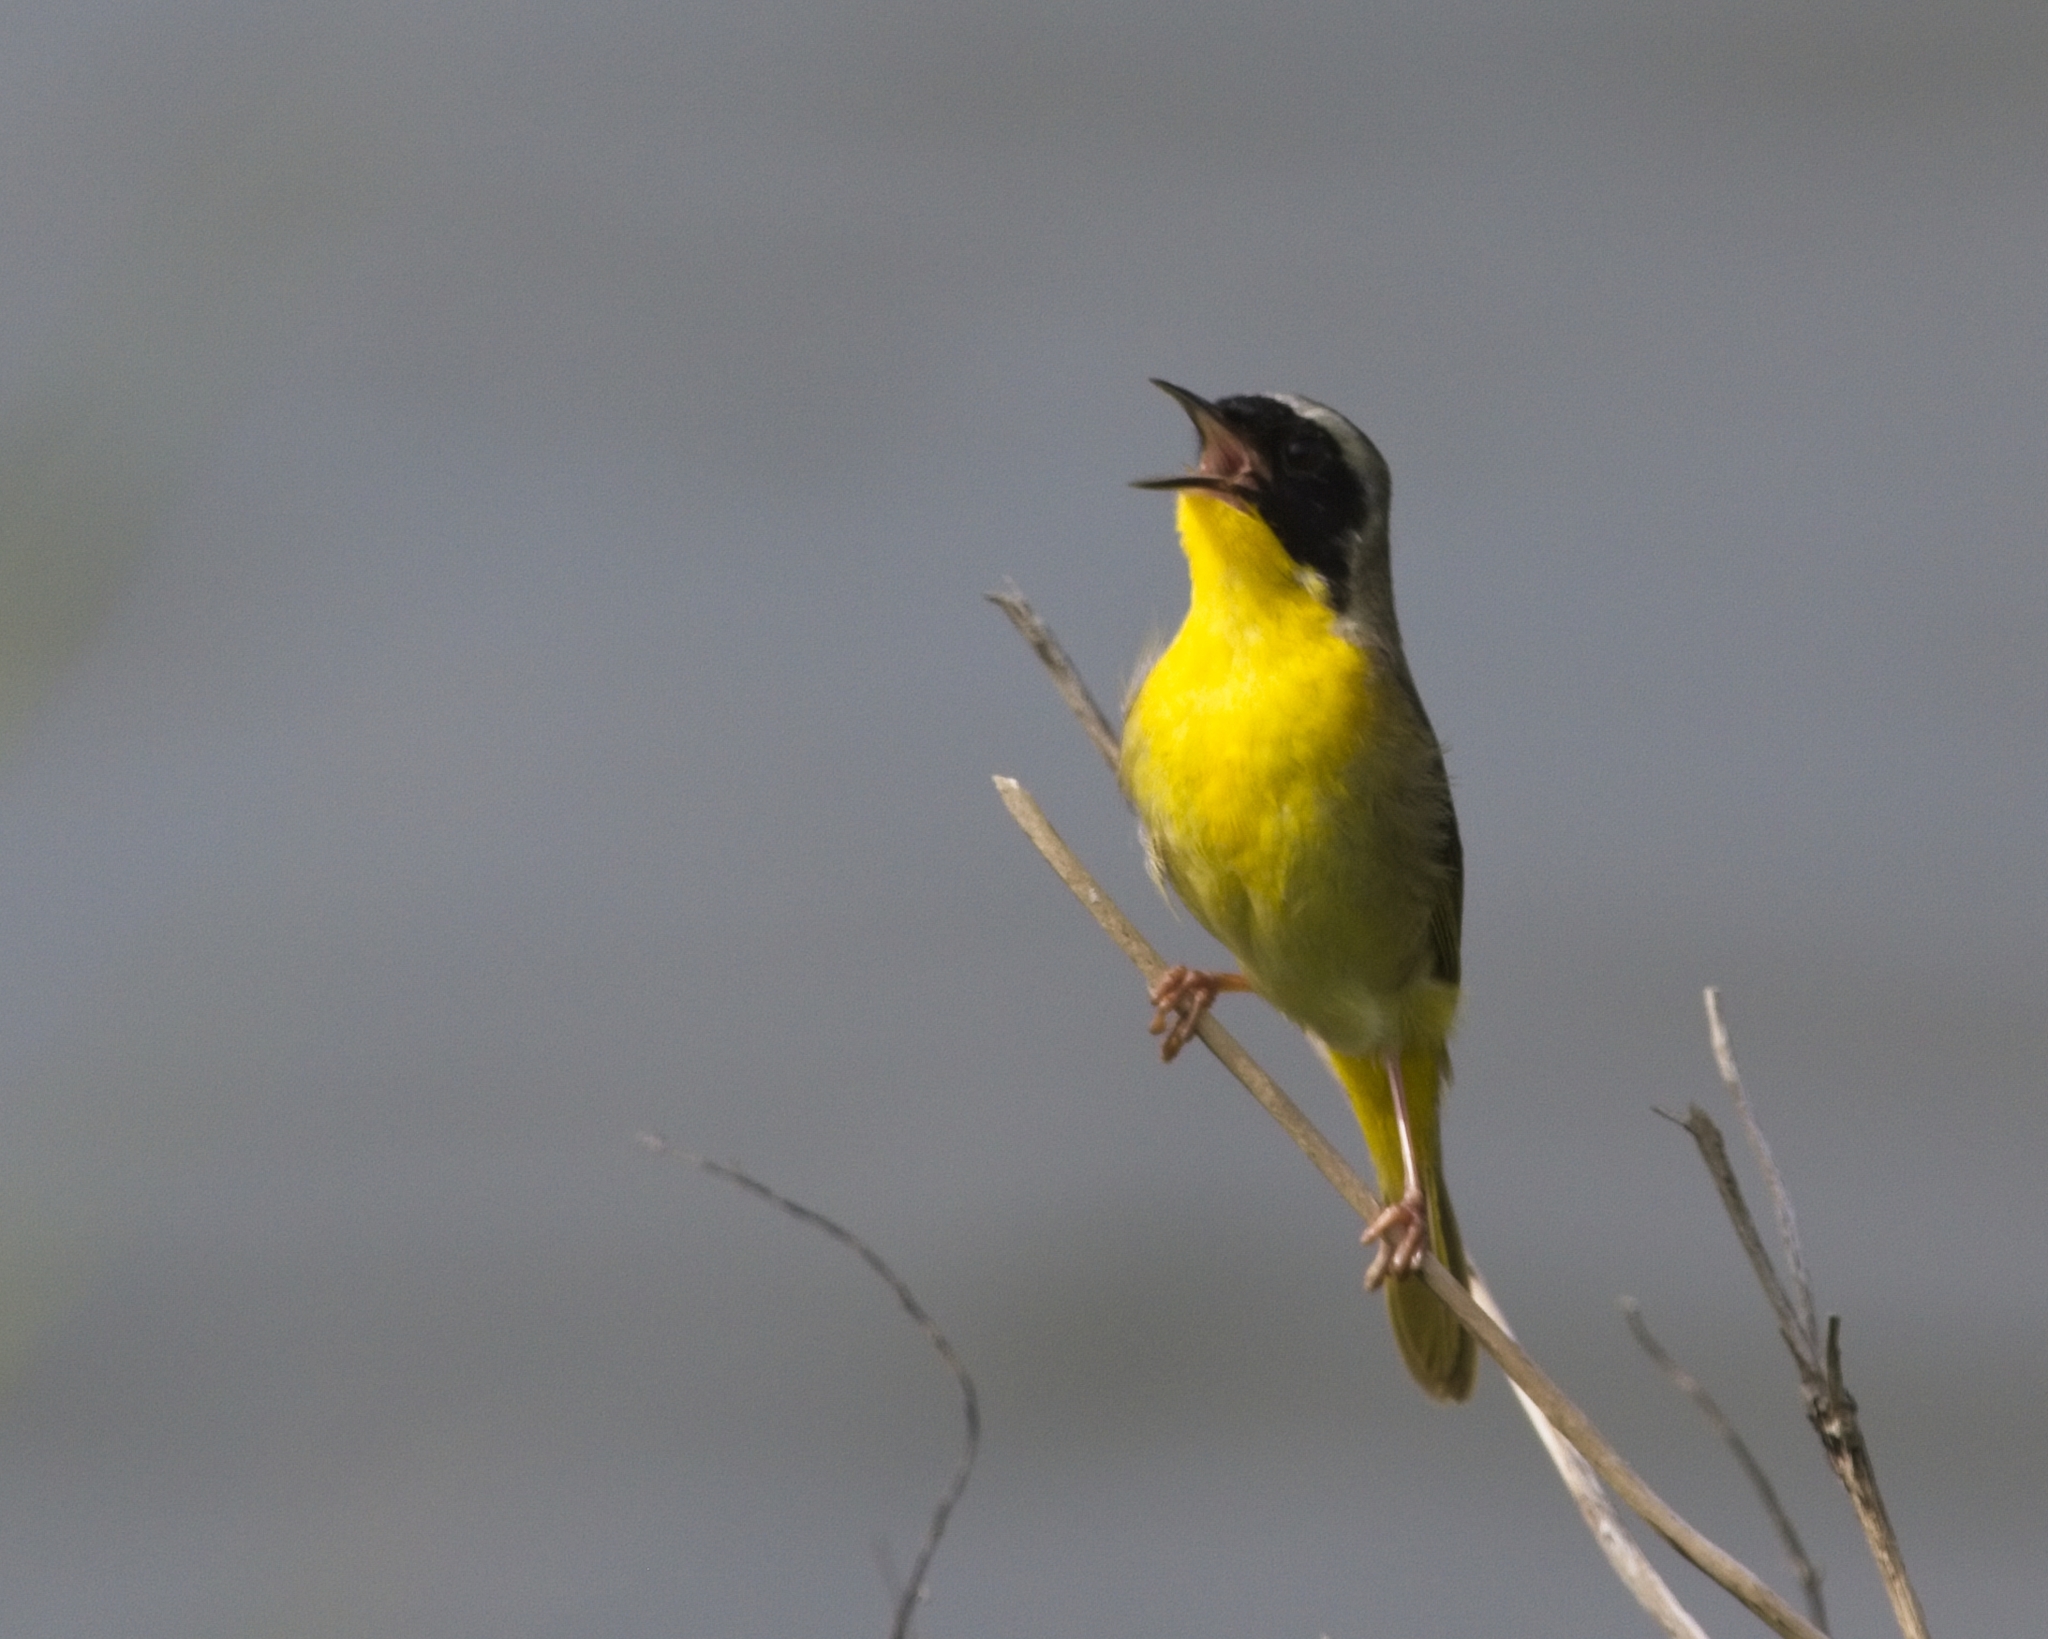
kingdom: Animalia
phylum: Chordata
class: Aves
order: Passeriformes
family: Parulidae
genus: Geothlypis
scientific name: Geothlypis trichas
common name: Common yellowthroat
